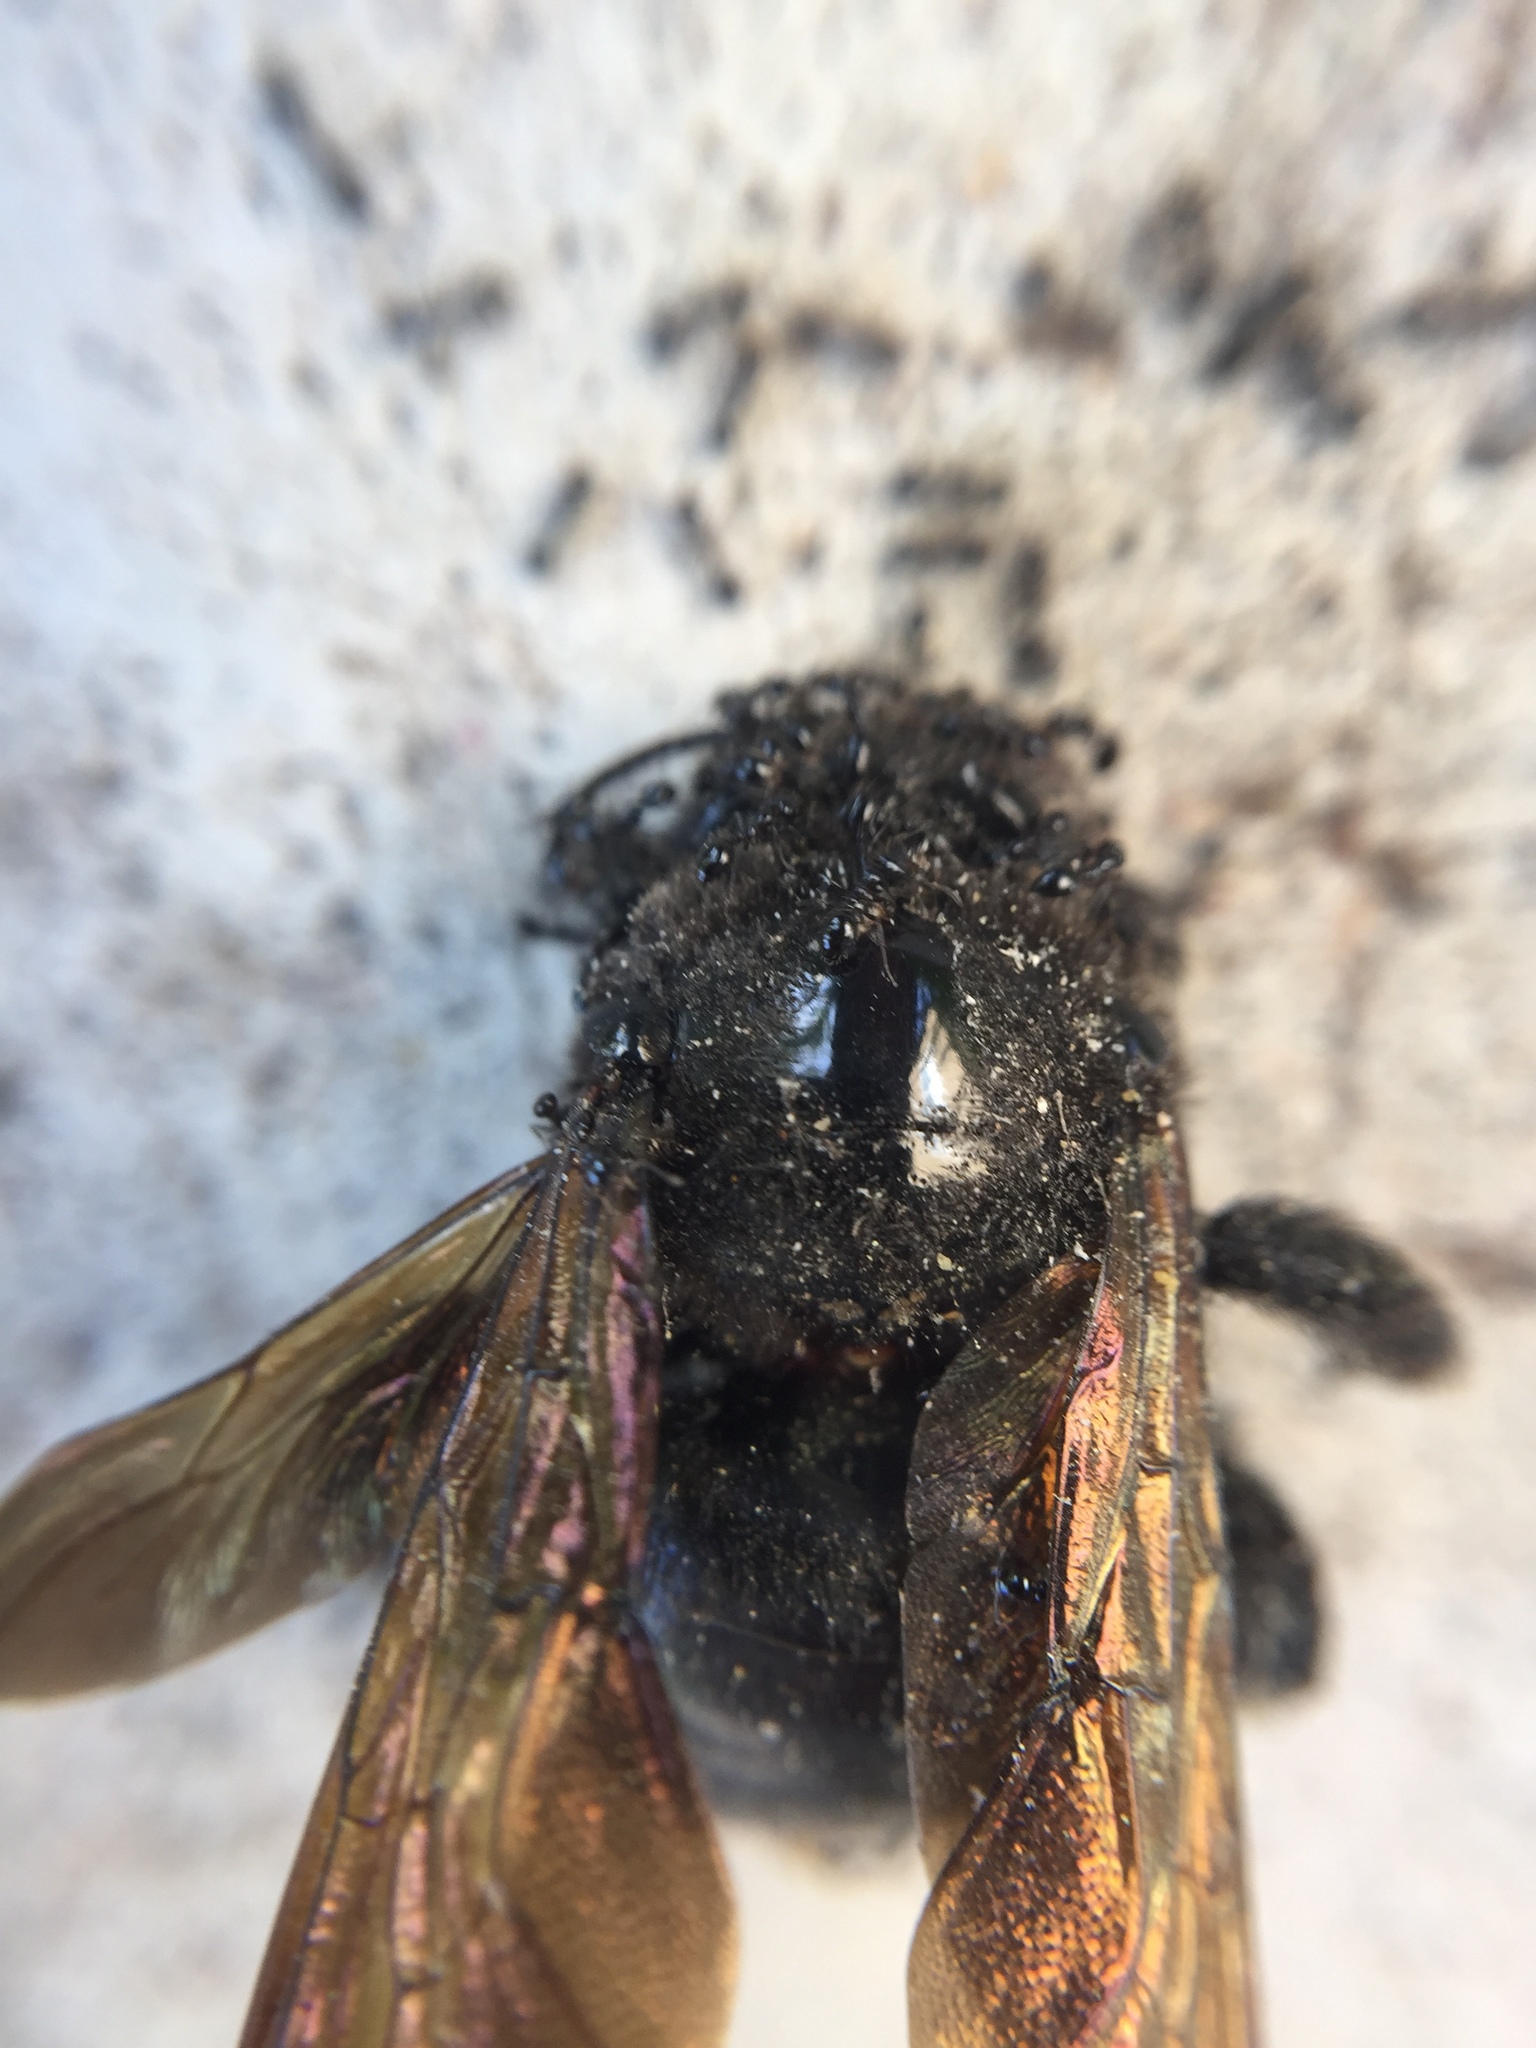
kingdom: Animalia
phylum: Arthropoda
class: Insecta
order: Hymenoptera
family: Apidae
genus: Xylocopa
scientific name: Xylocopa sonorina
